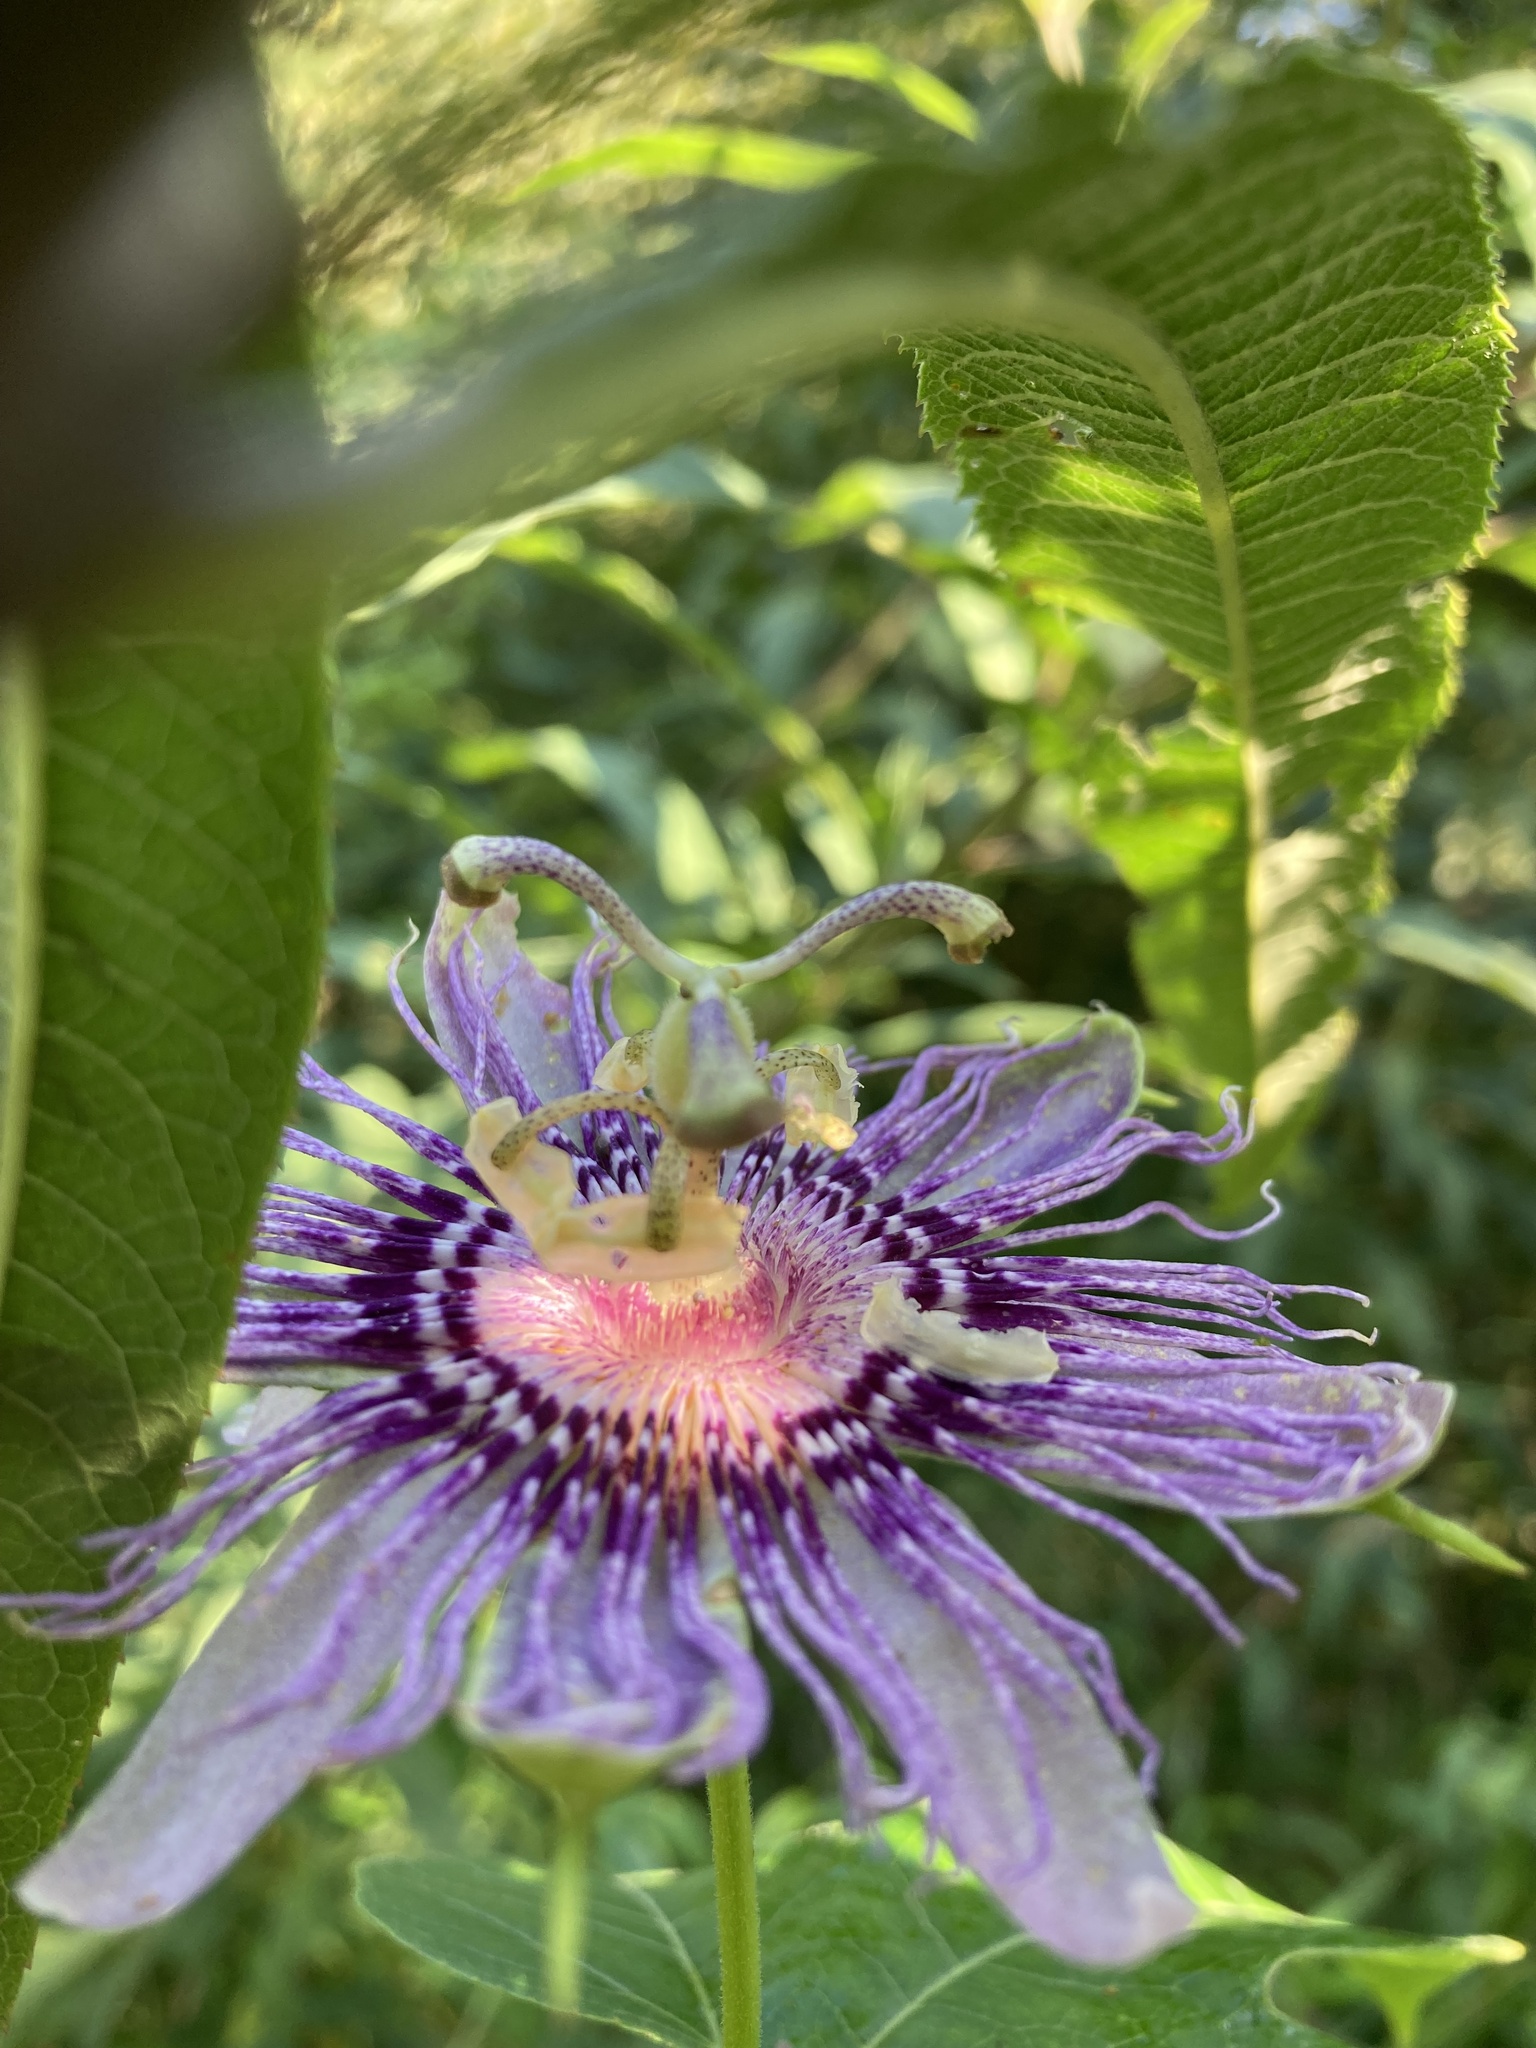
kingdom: Plantae
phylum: Tracheophyta
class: Magnoliopsida
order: Malpighiales
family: Passifloraceae
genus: Passiflora
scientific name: Passiflora incarnata
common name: Apricot-vine
